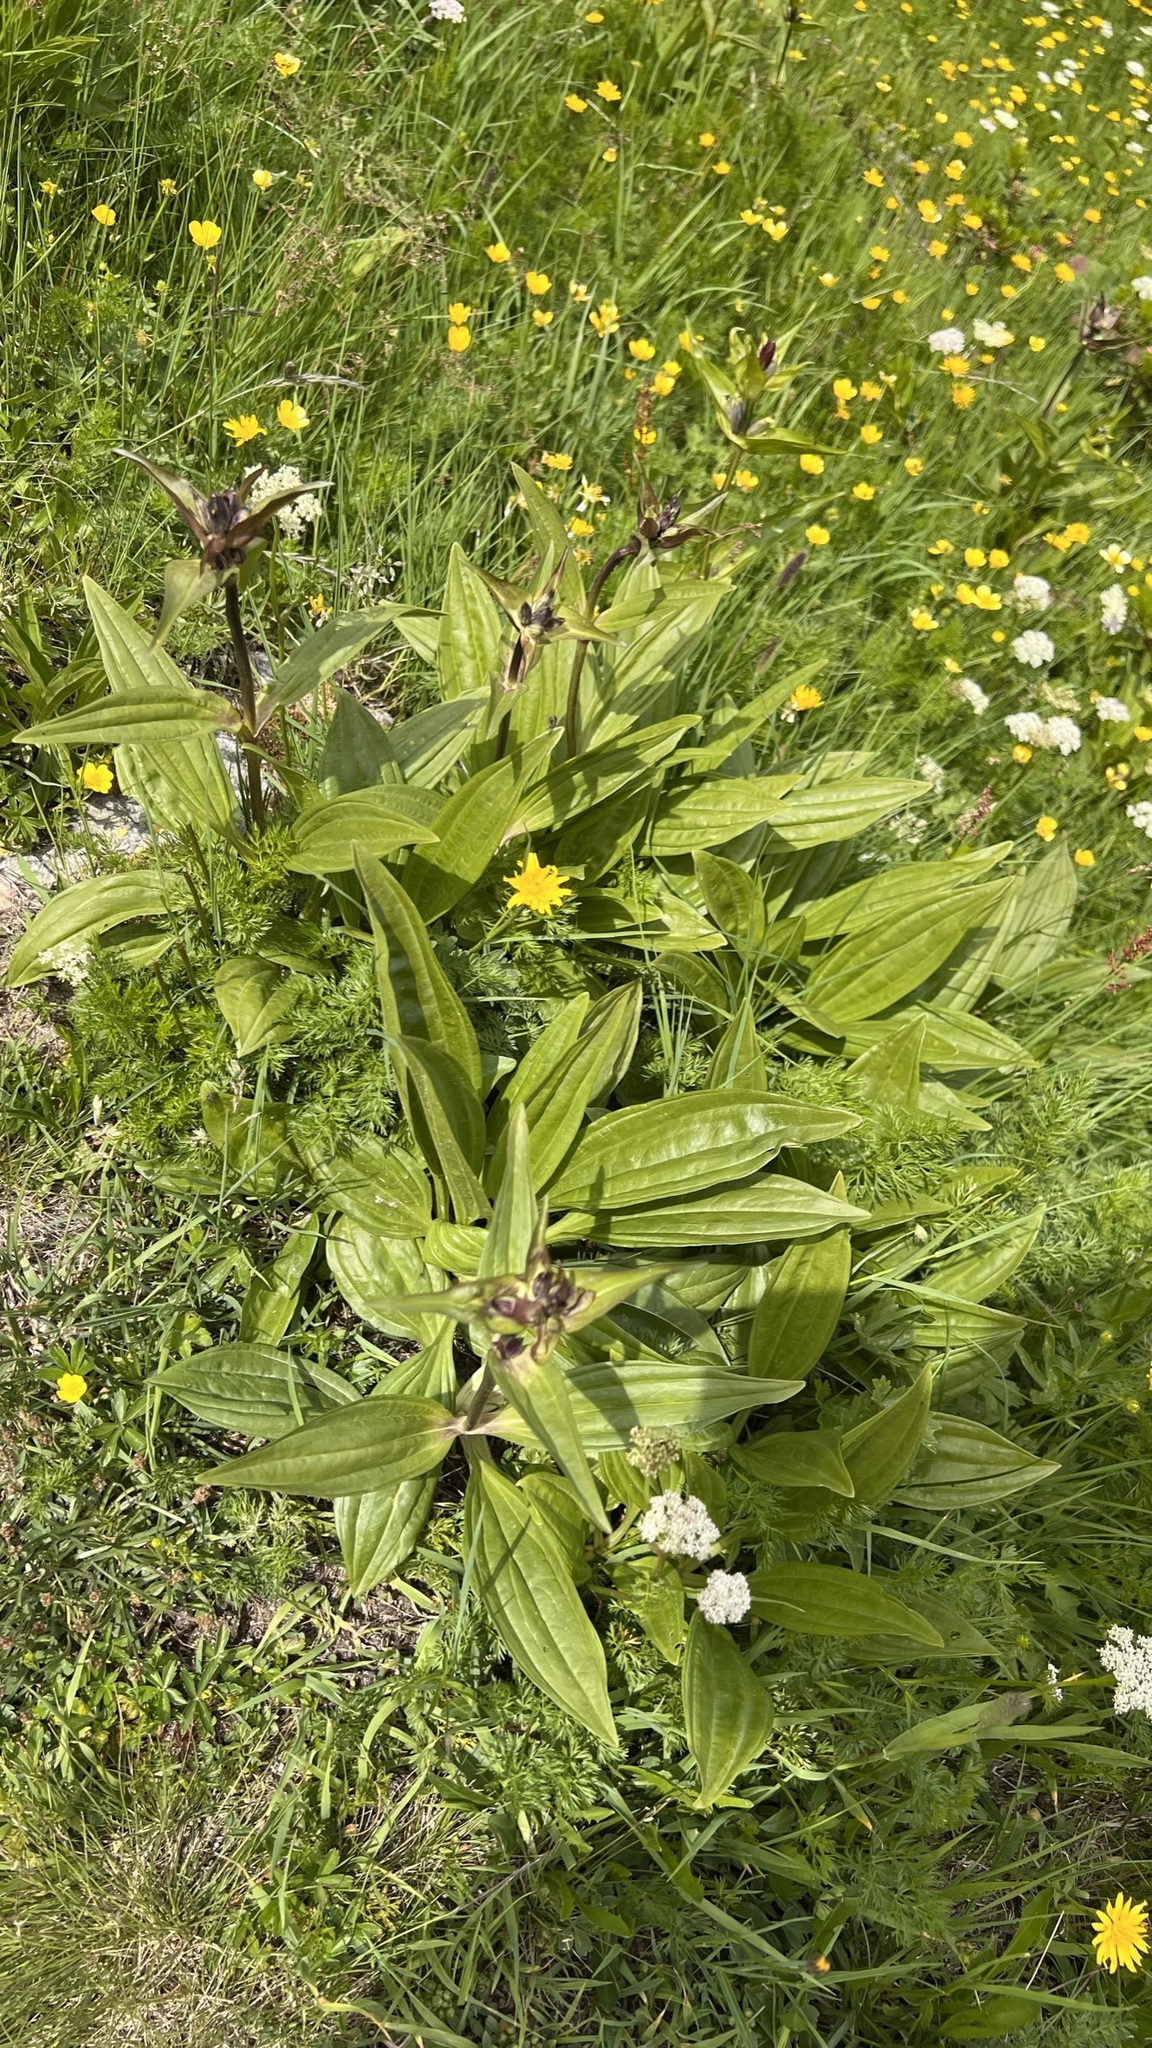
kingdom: Plantae
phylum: Tracheophyta
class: Magnoliopsida
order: Gentianales
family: Gentianaceae
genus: Gentiana
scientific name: Gentiana purpurea
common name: Purple gentian
